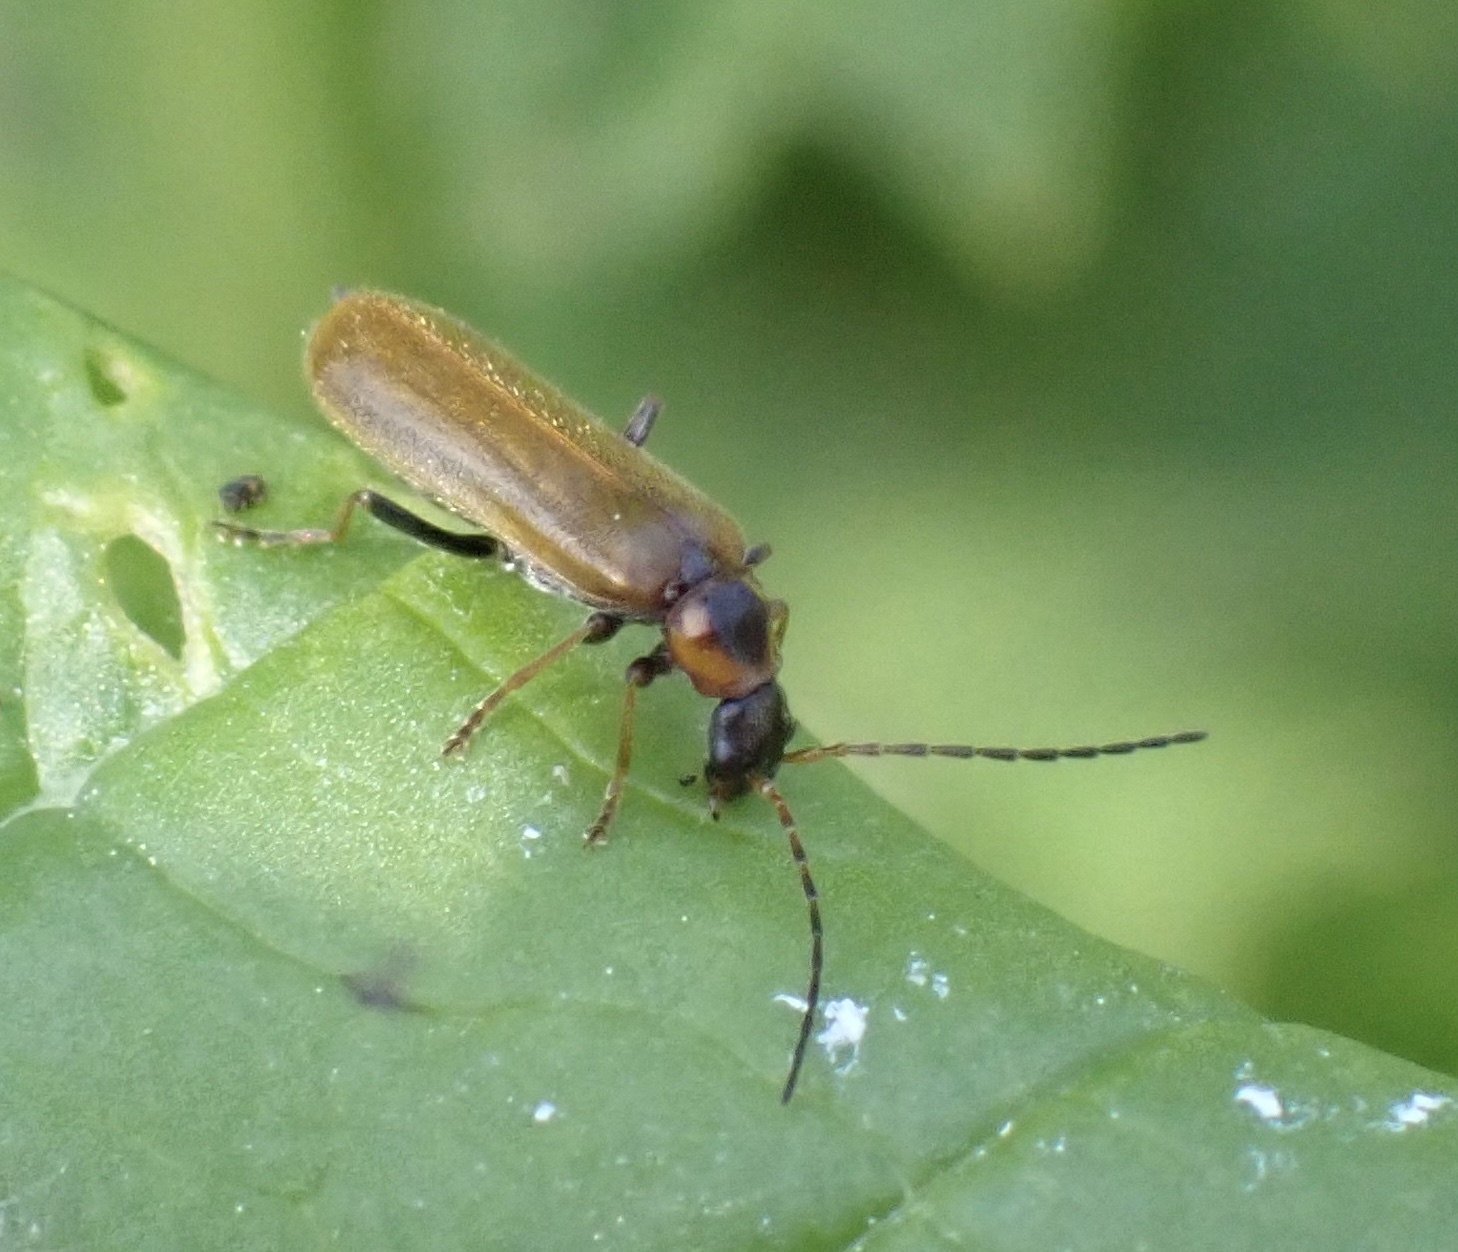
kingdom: Animalia
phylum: Arthropoda
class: Insecta
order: Coleoptera
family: Cantharidae
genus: Rhagonycha
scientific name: Rhagonycha nigriventris
